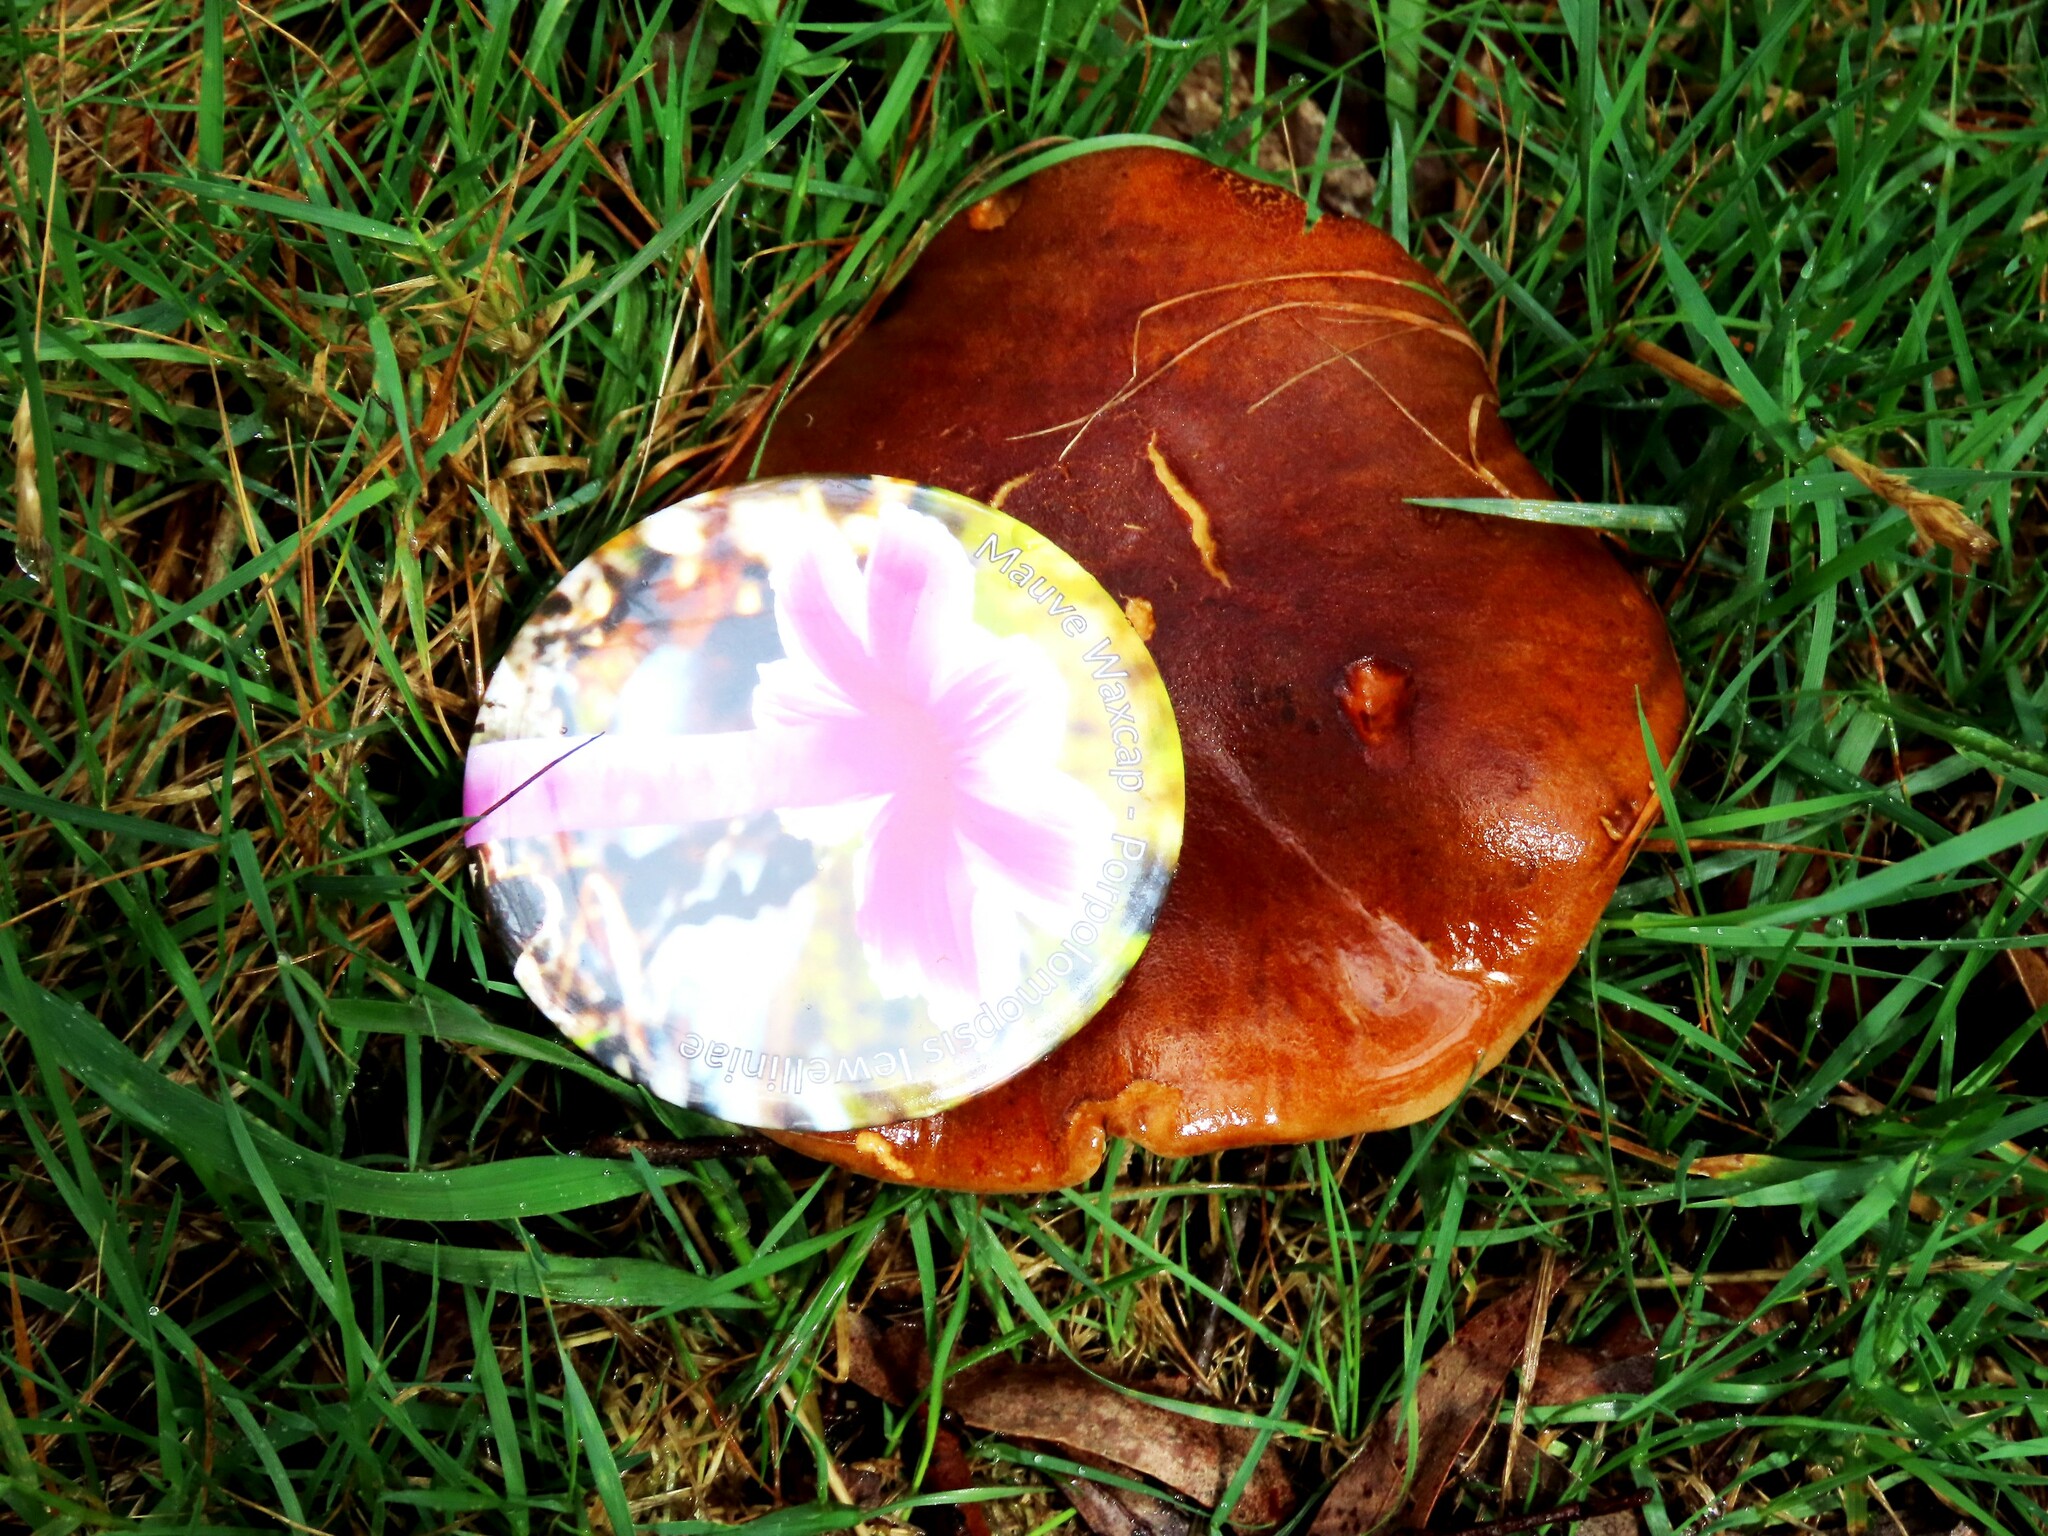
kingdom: Fungi
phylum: Basidiomycota
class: Agaricomycetes
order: Boletales
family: Boletaceae
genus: Phylloporus
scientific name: Phylloporus rhodoxanthus
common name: Golden gilled bolete
